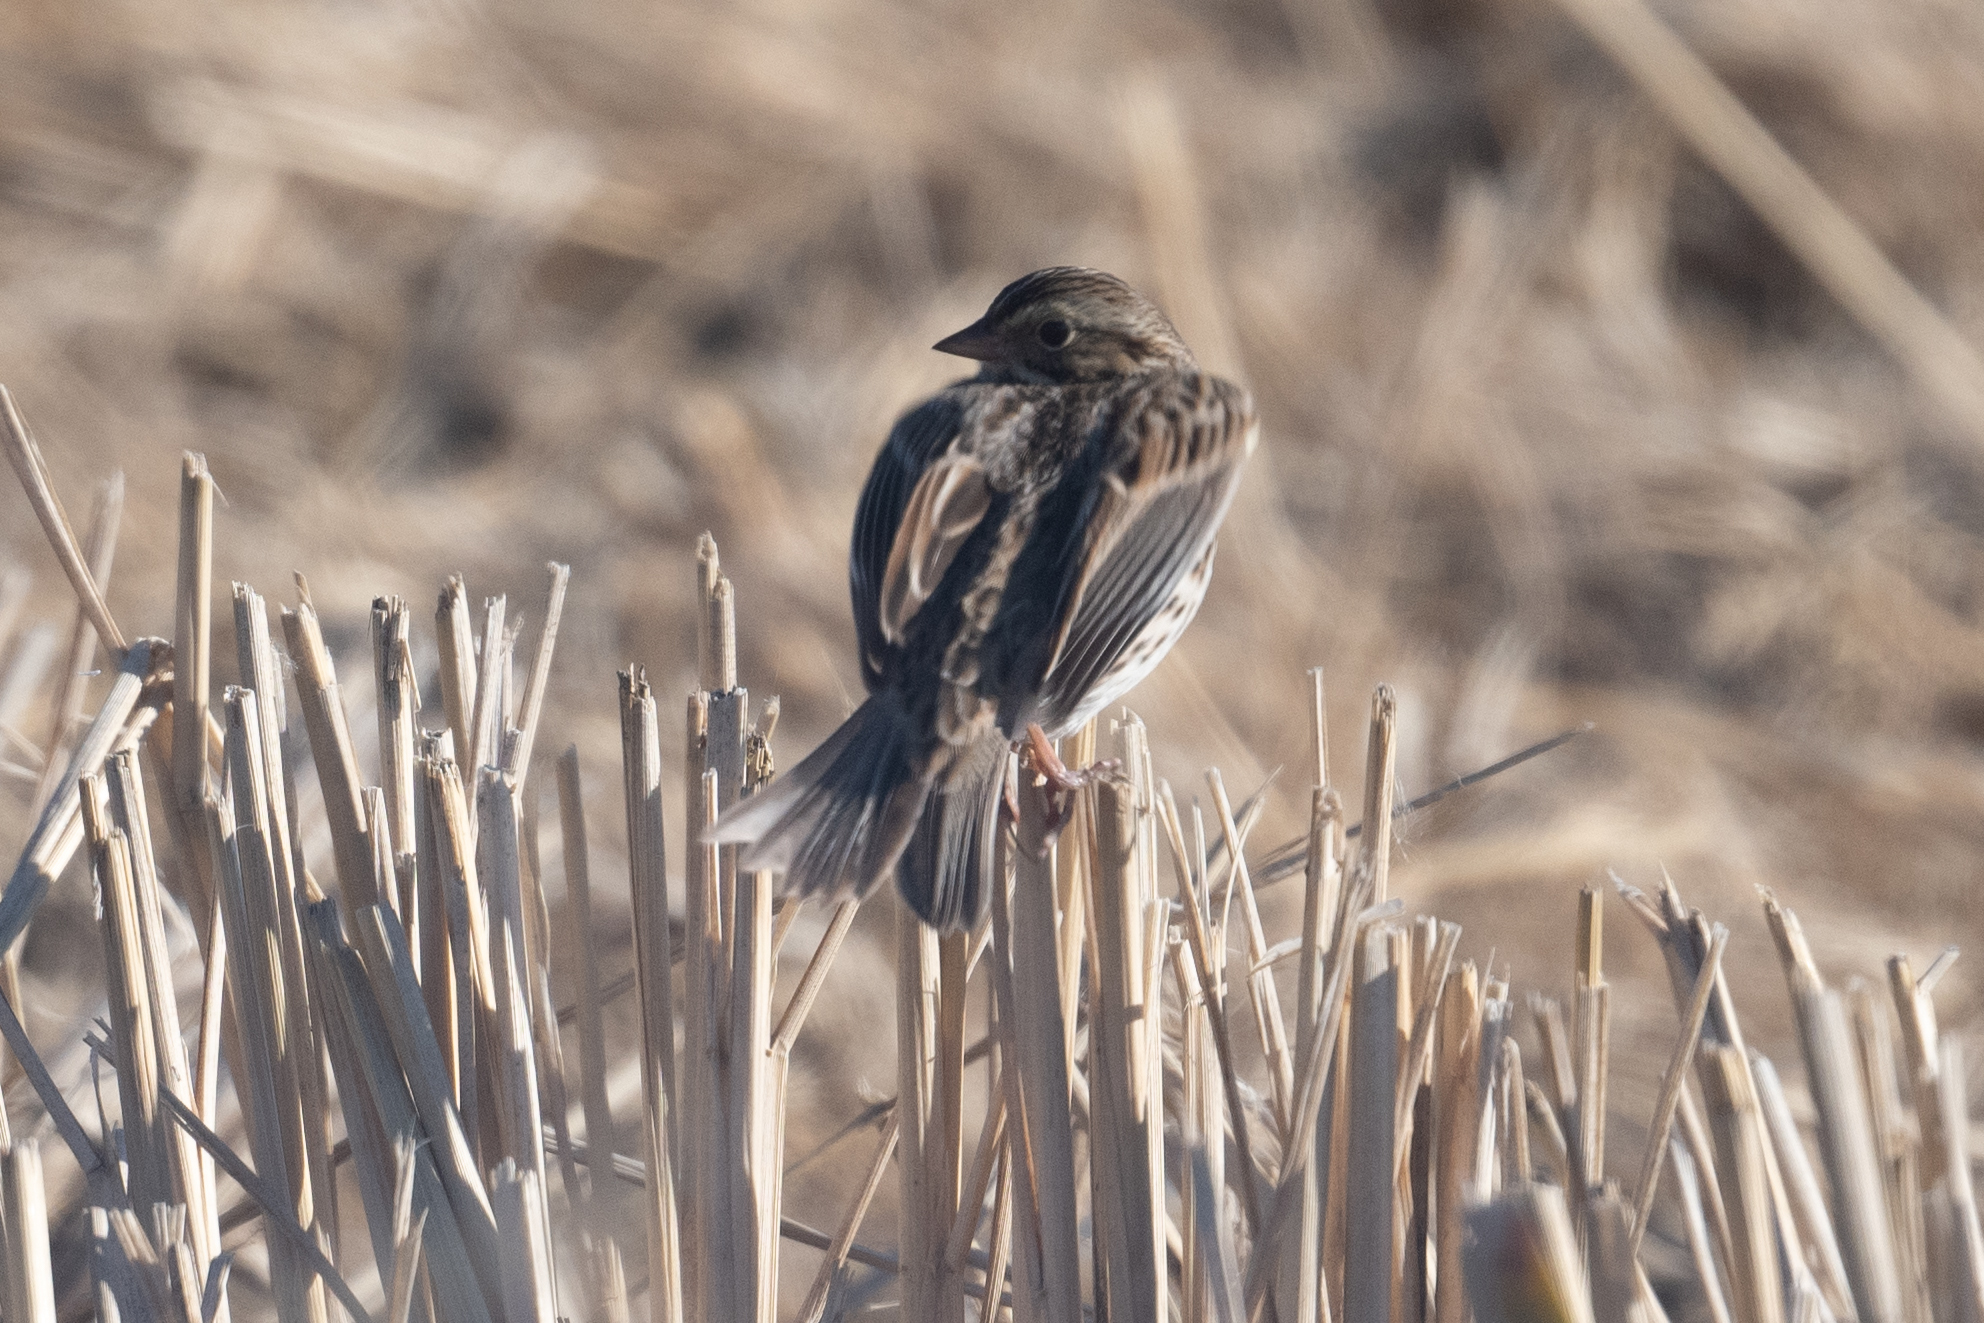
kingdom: Animalia
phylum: Chordata
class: Aves
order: Passeriformes
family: Passerellidae
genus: Passerculus
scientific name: Passerculus sandwichensis
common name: Savannah sparrow
